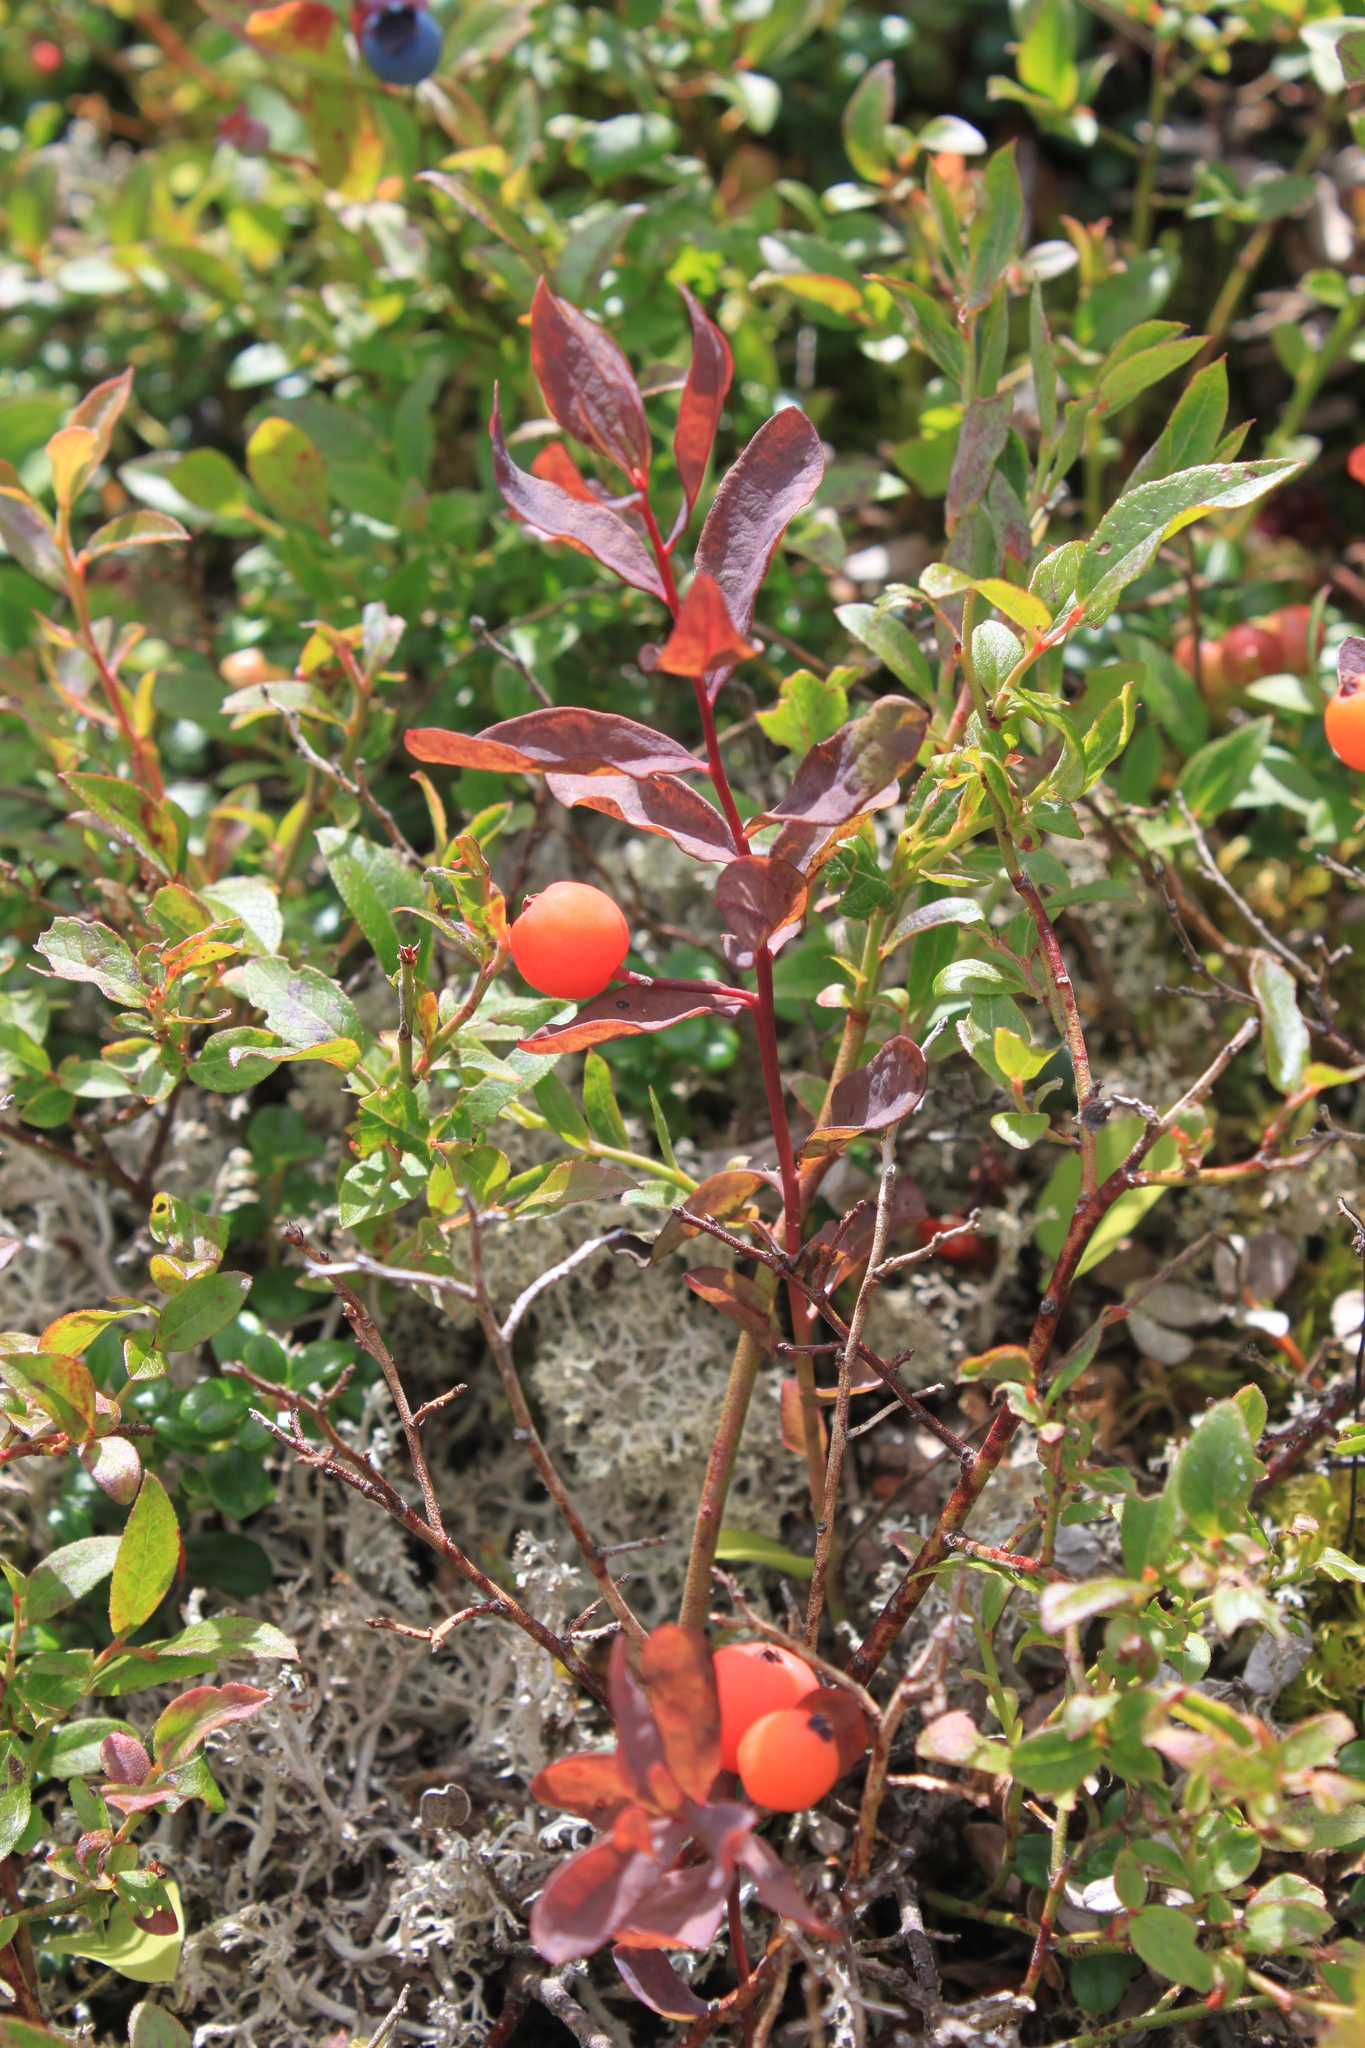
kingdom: Plantae
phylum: Tracheophyta
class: Magnoliopsida
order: Santalales
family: Comandraceae
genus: Geocaulon
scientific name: Geocaulon lividum
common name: Earthberry
